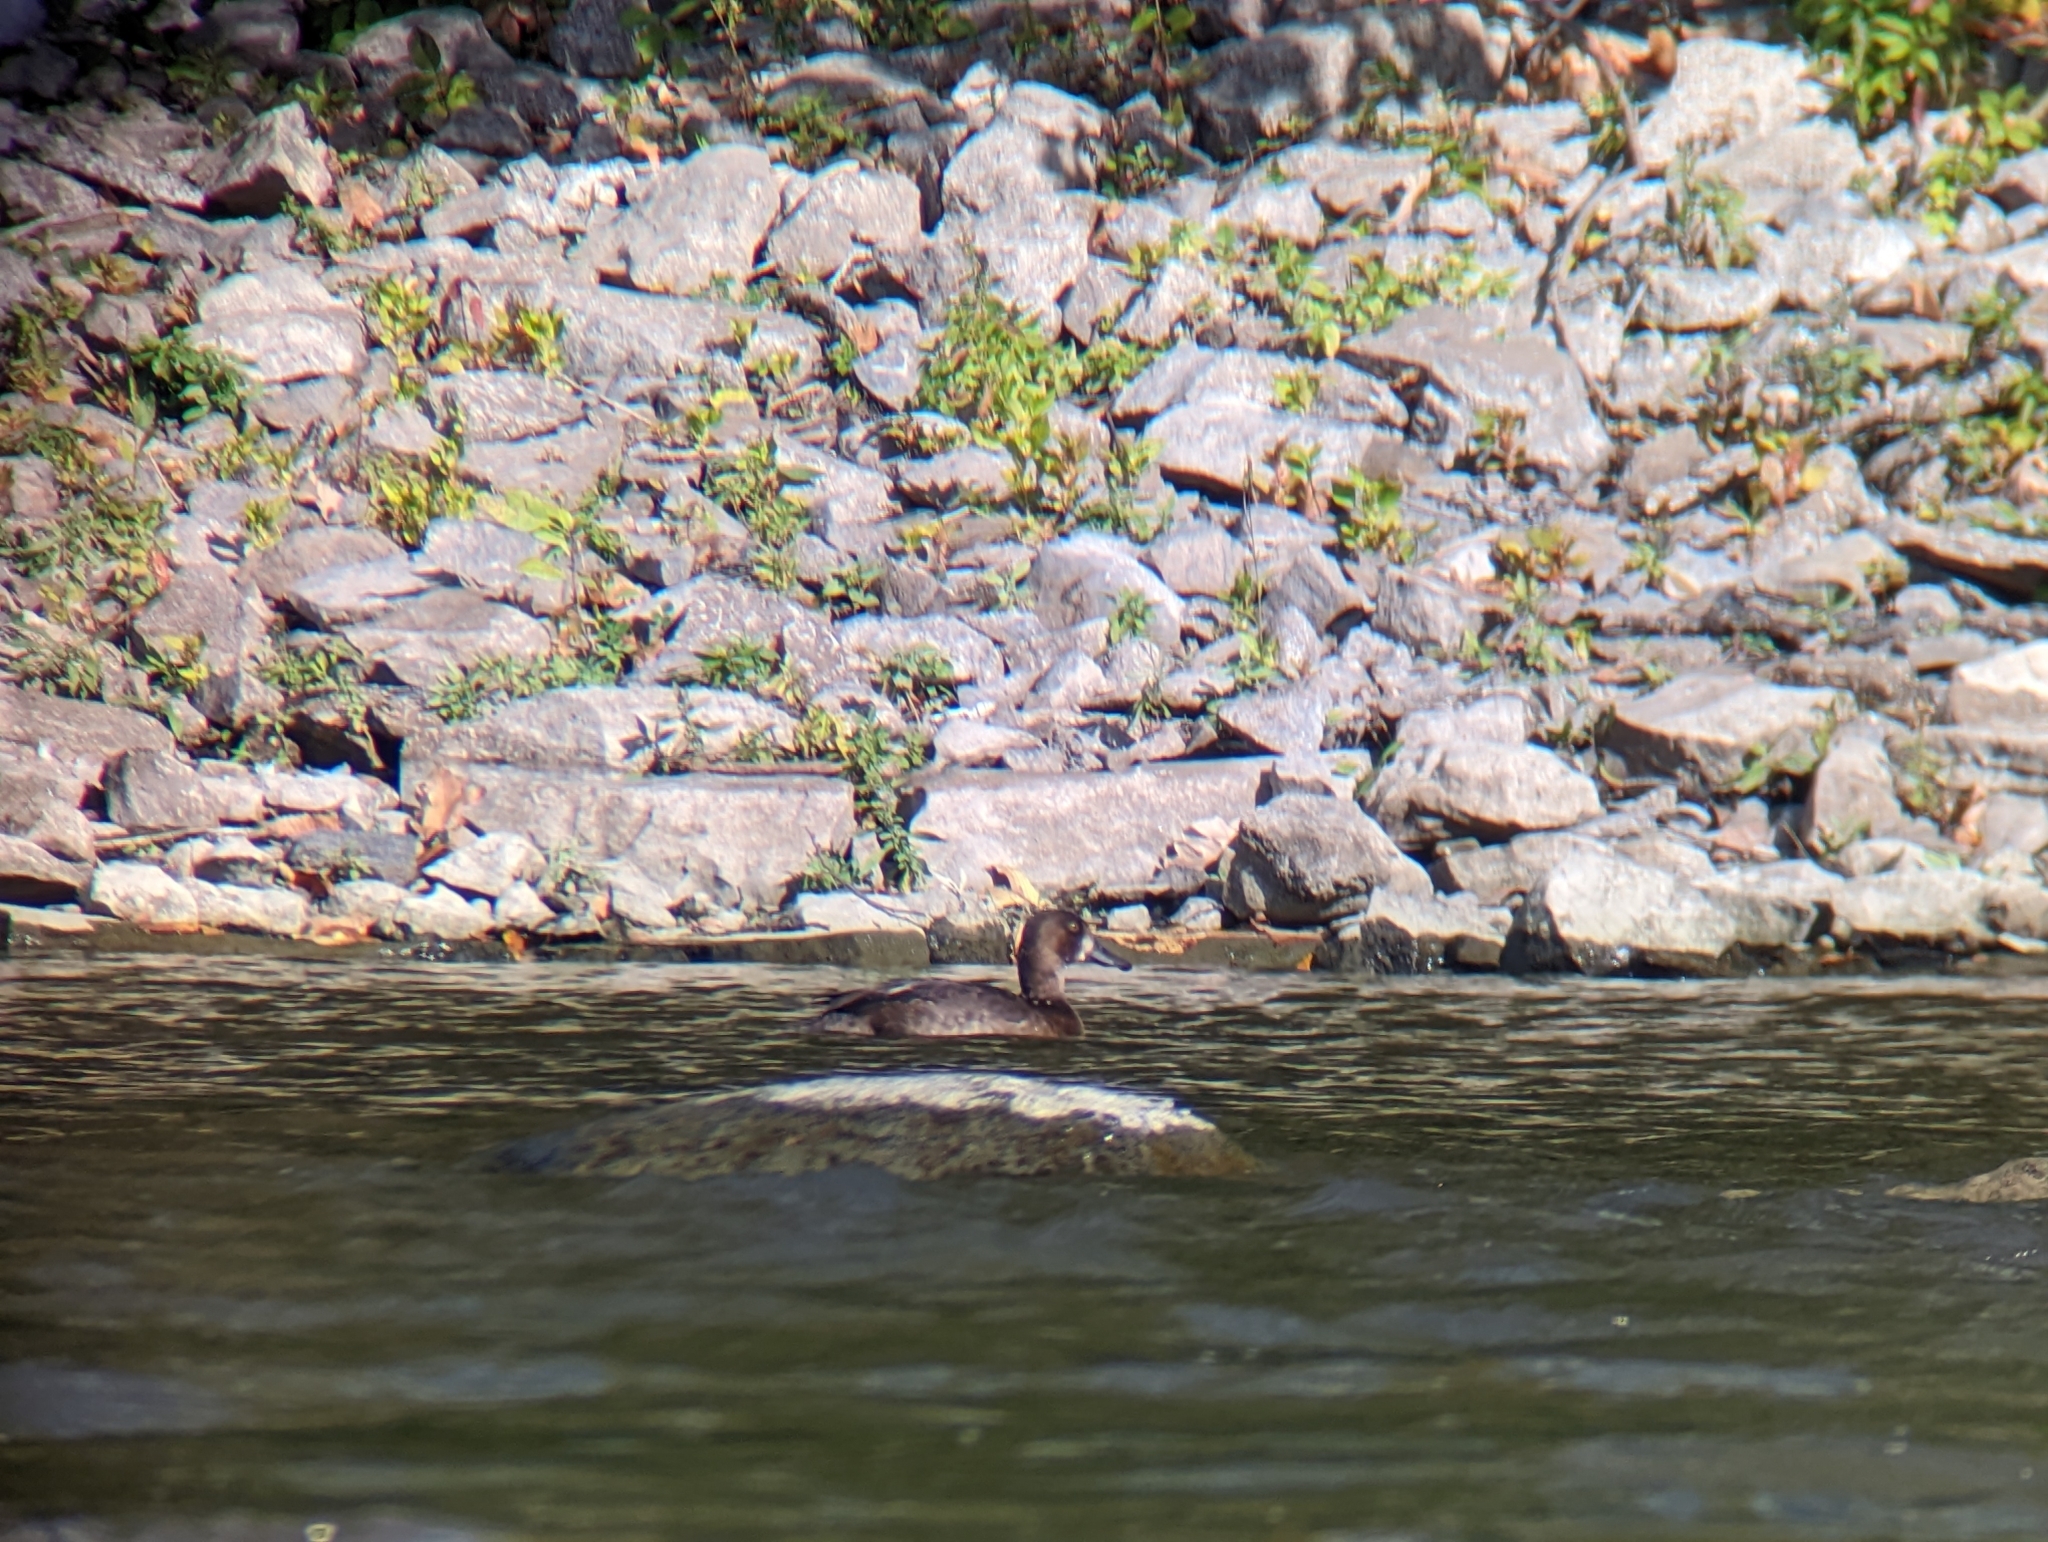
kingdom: Animalia
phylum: Chordata
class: Aves
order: Anseriformes
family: Anatidae
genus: Aythya
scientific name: Aythya affinis
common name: Lesser scaup
